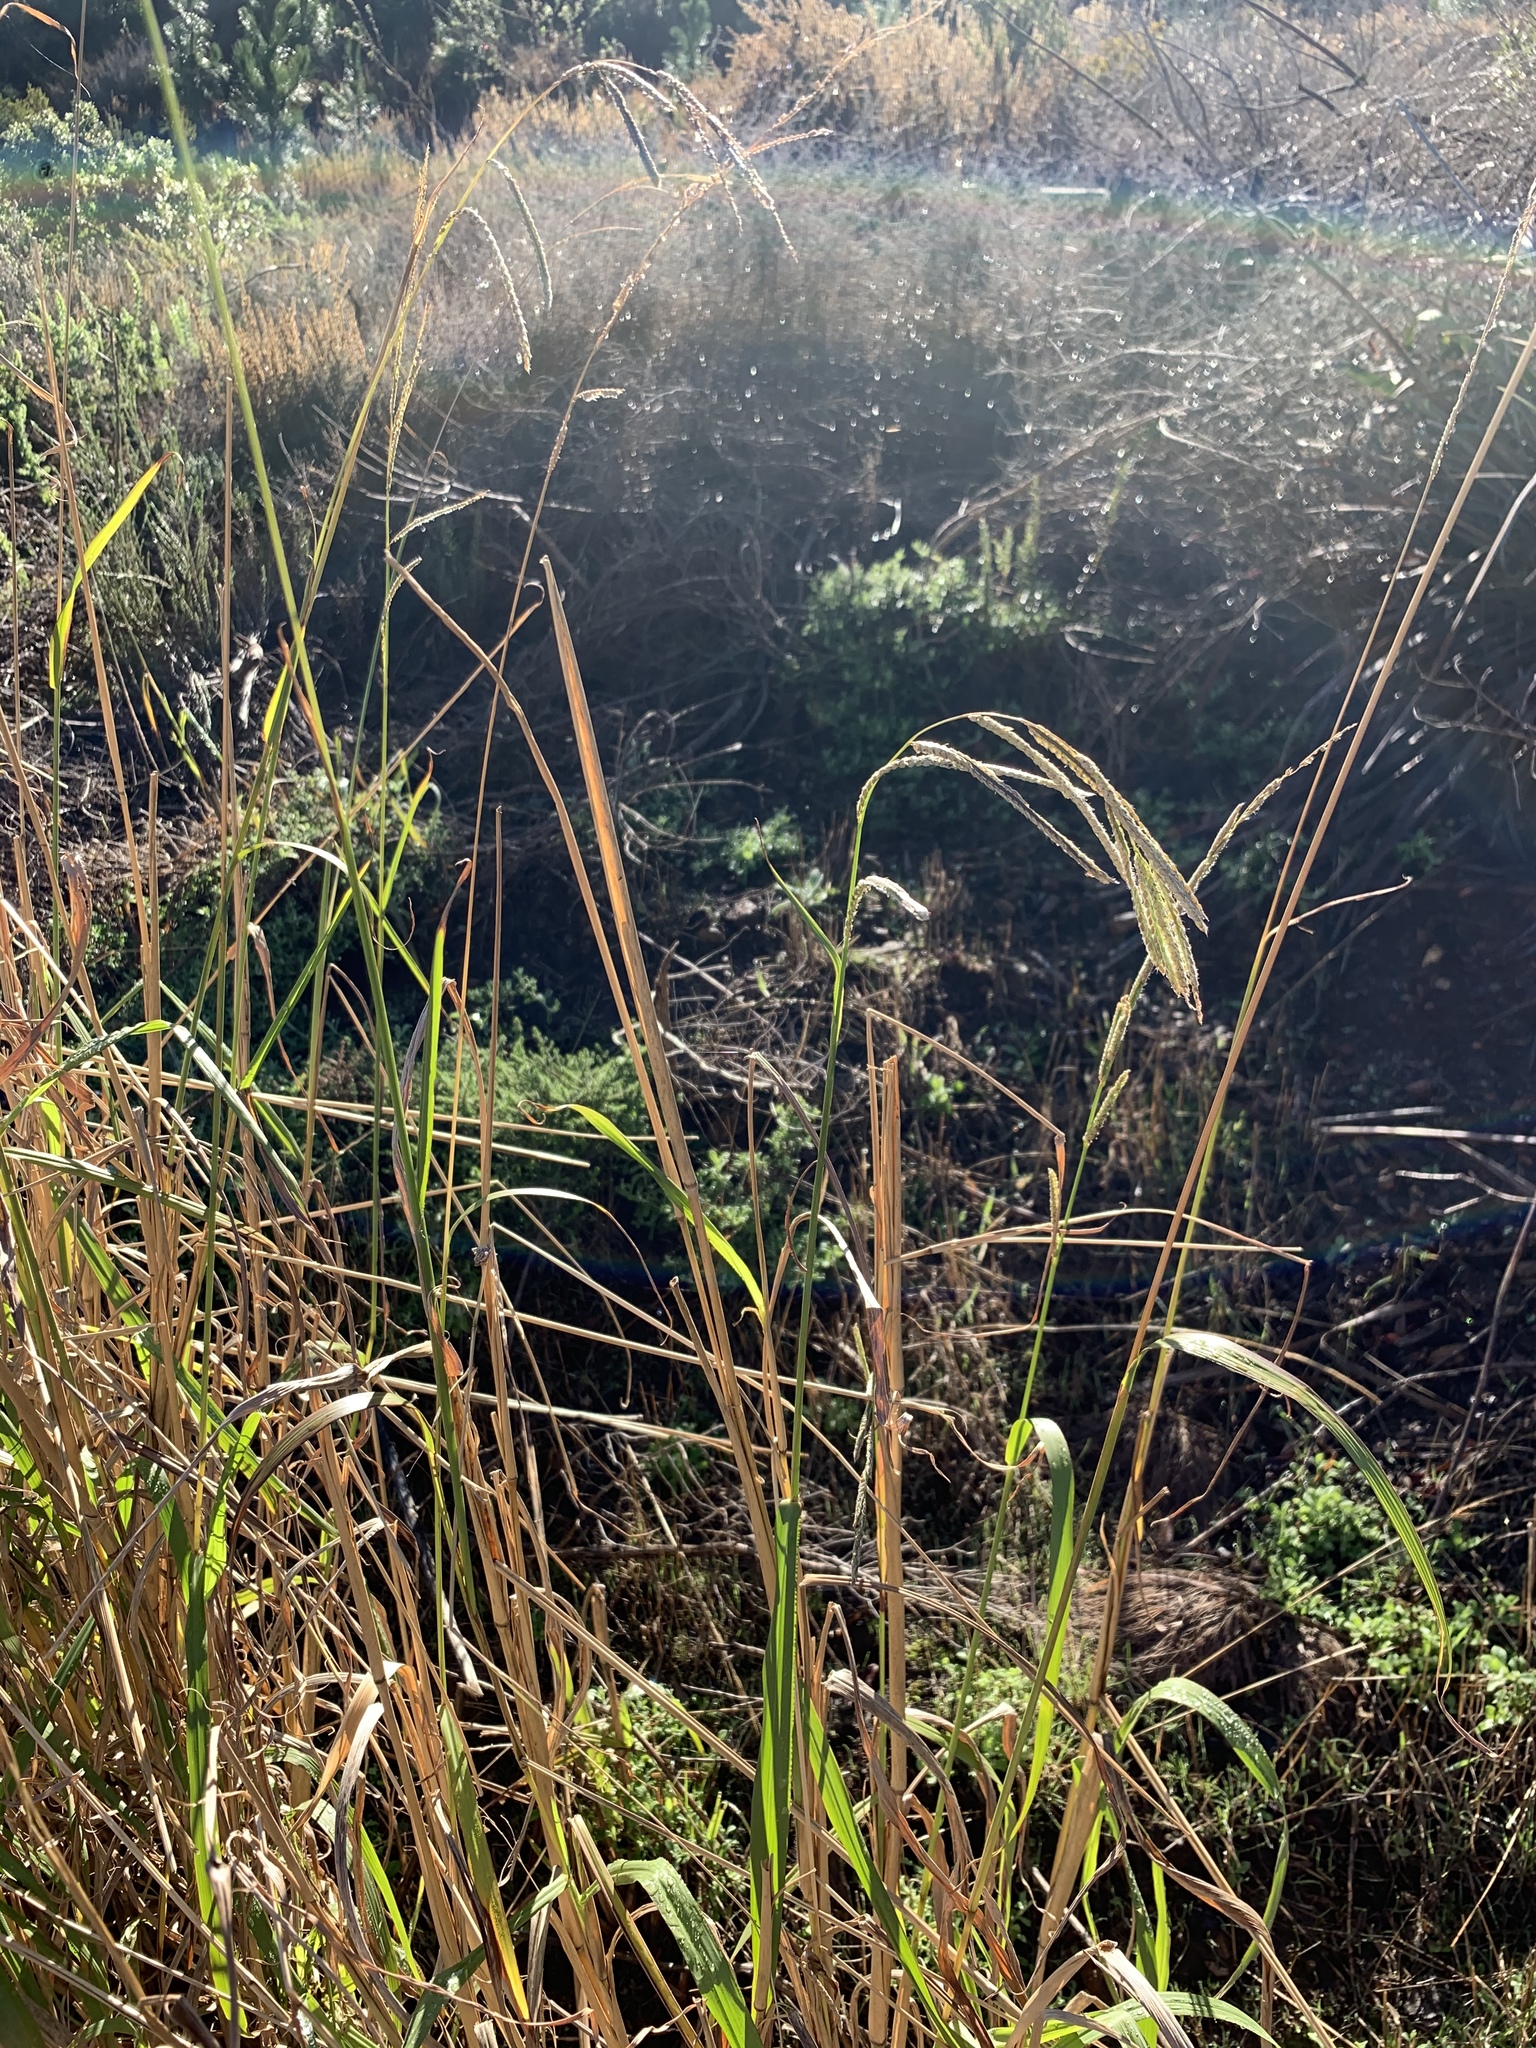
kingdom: Plantae
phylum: Tracheophyta
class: Liliopsida
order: Poales
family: Poaceae
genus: Paspalum
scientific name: Paspalum urvillei
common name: Vasey's grass
